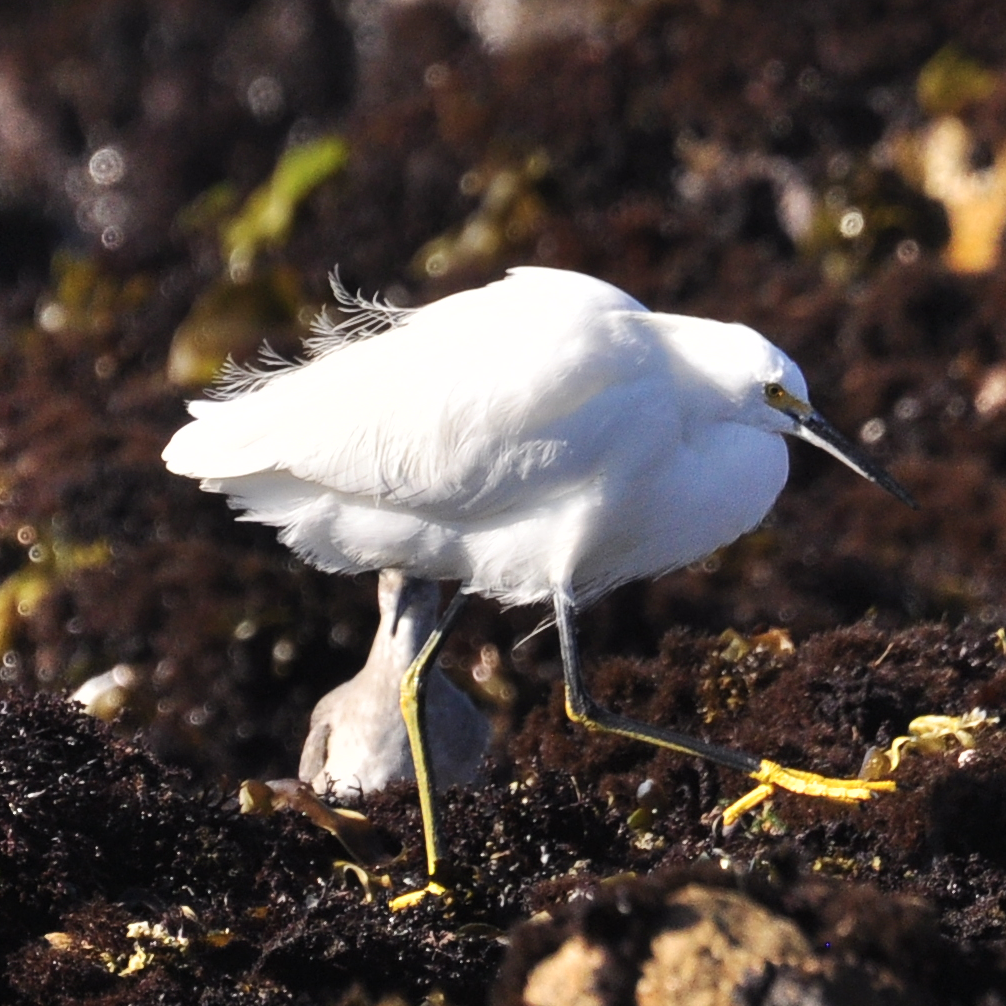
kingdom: Animalia
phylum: Chordata
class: Aves
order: Pelecaniformes
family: Ardeidae
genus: Egretta
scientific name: Egretta thula
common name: Snowy egret
